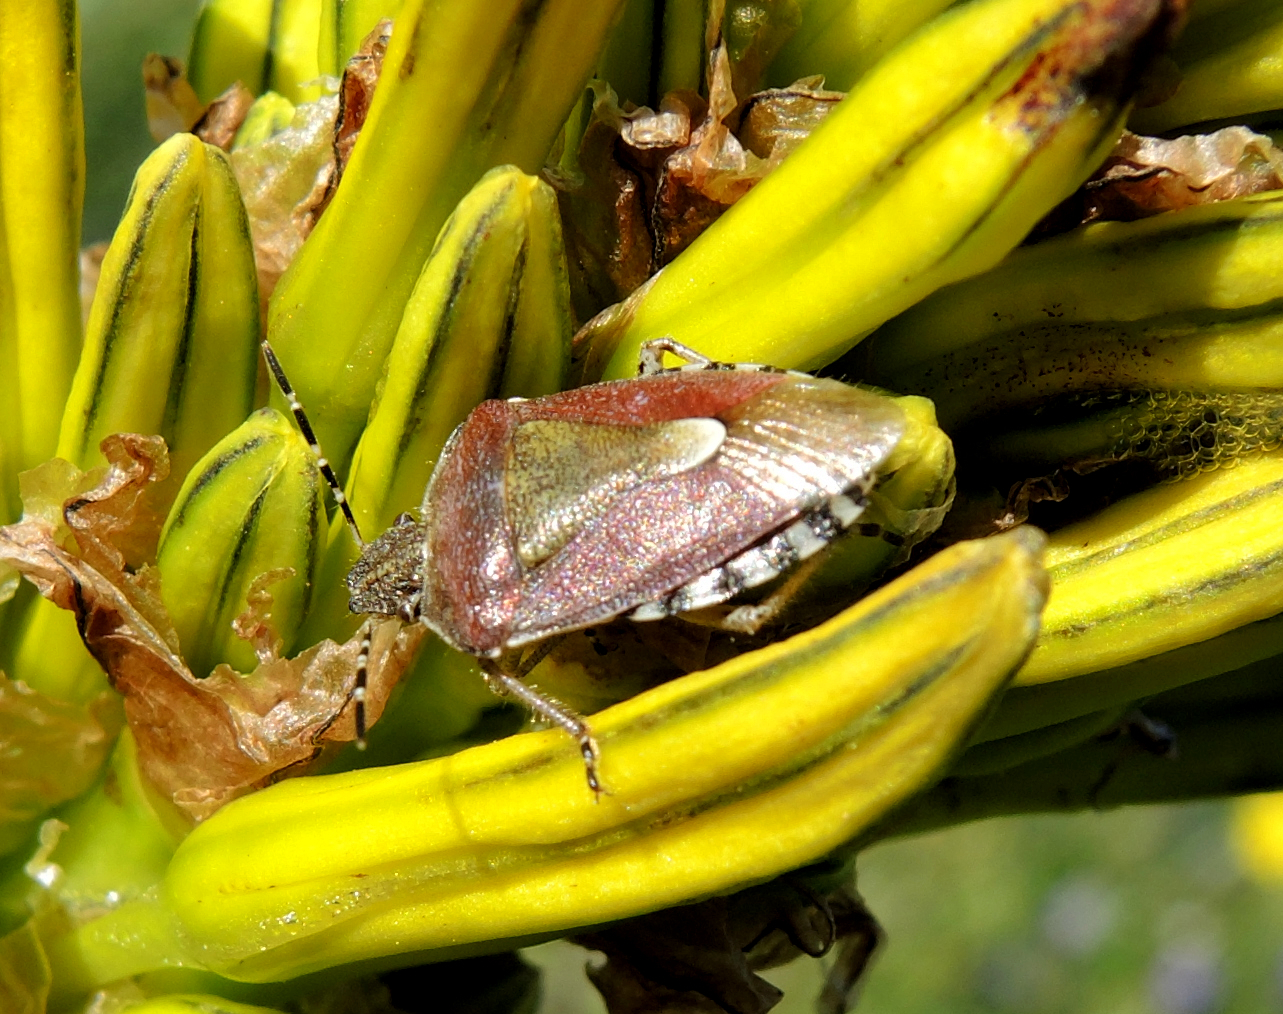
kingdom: Animalia
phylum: Arthropoda
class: Insecta
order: Hemiptera
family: Pentatomidae
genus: Dolycoris
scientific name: Dolycoris baccarum
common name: Sloe bug
